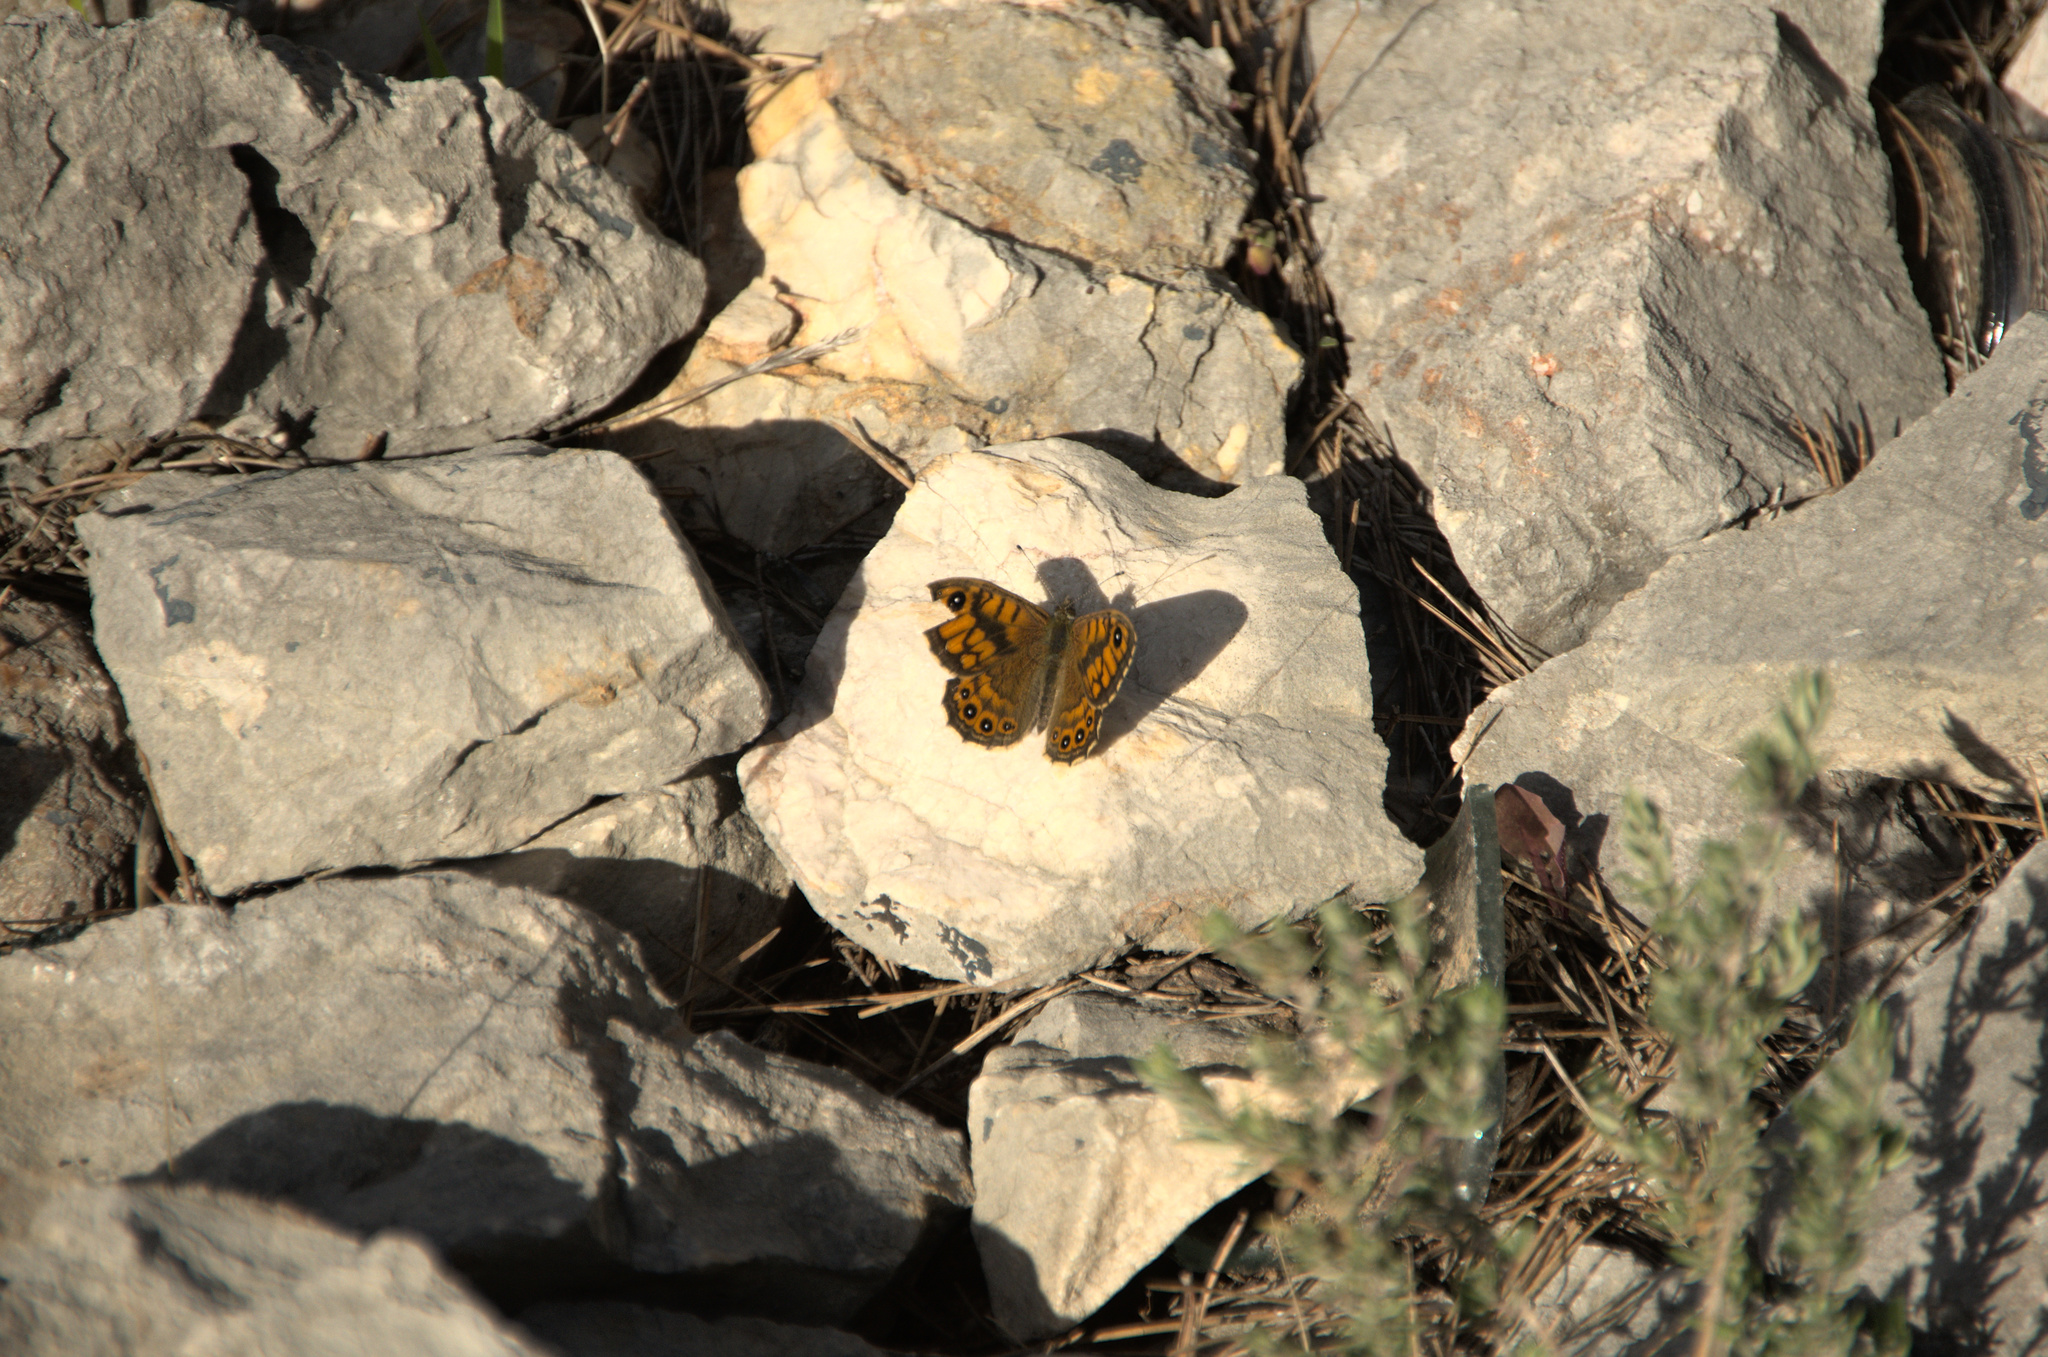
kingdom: Animalia
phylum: Arthropoda
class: Insecta
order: Lepidoptera
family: Nymphalidae
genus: Pararge
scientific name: Pararge Lasiommata megera
